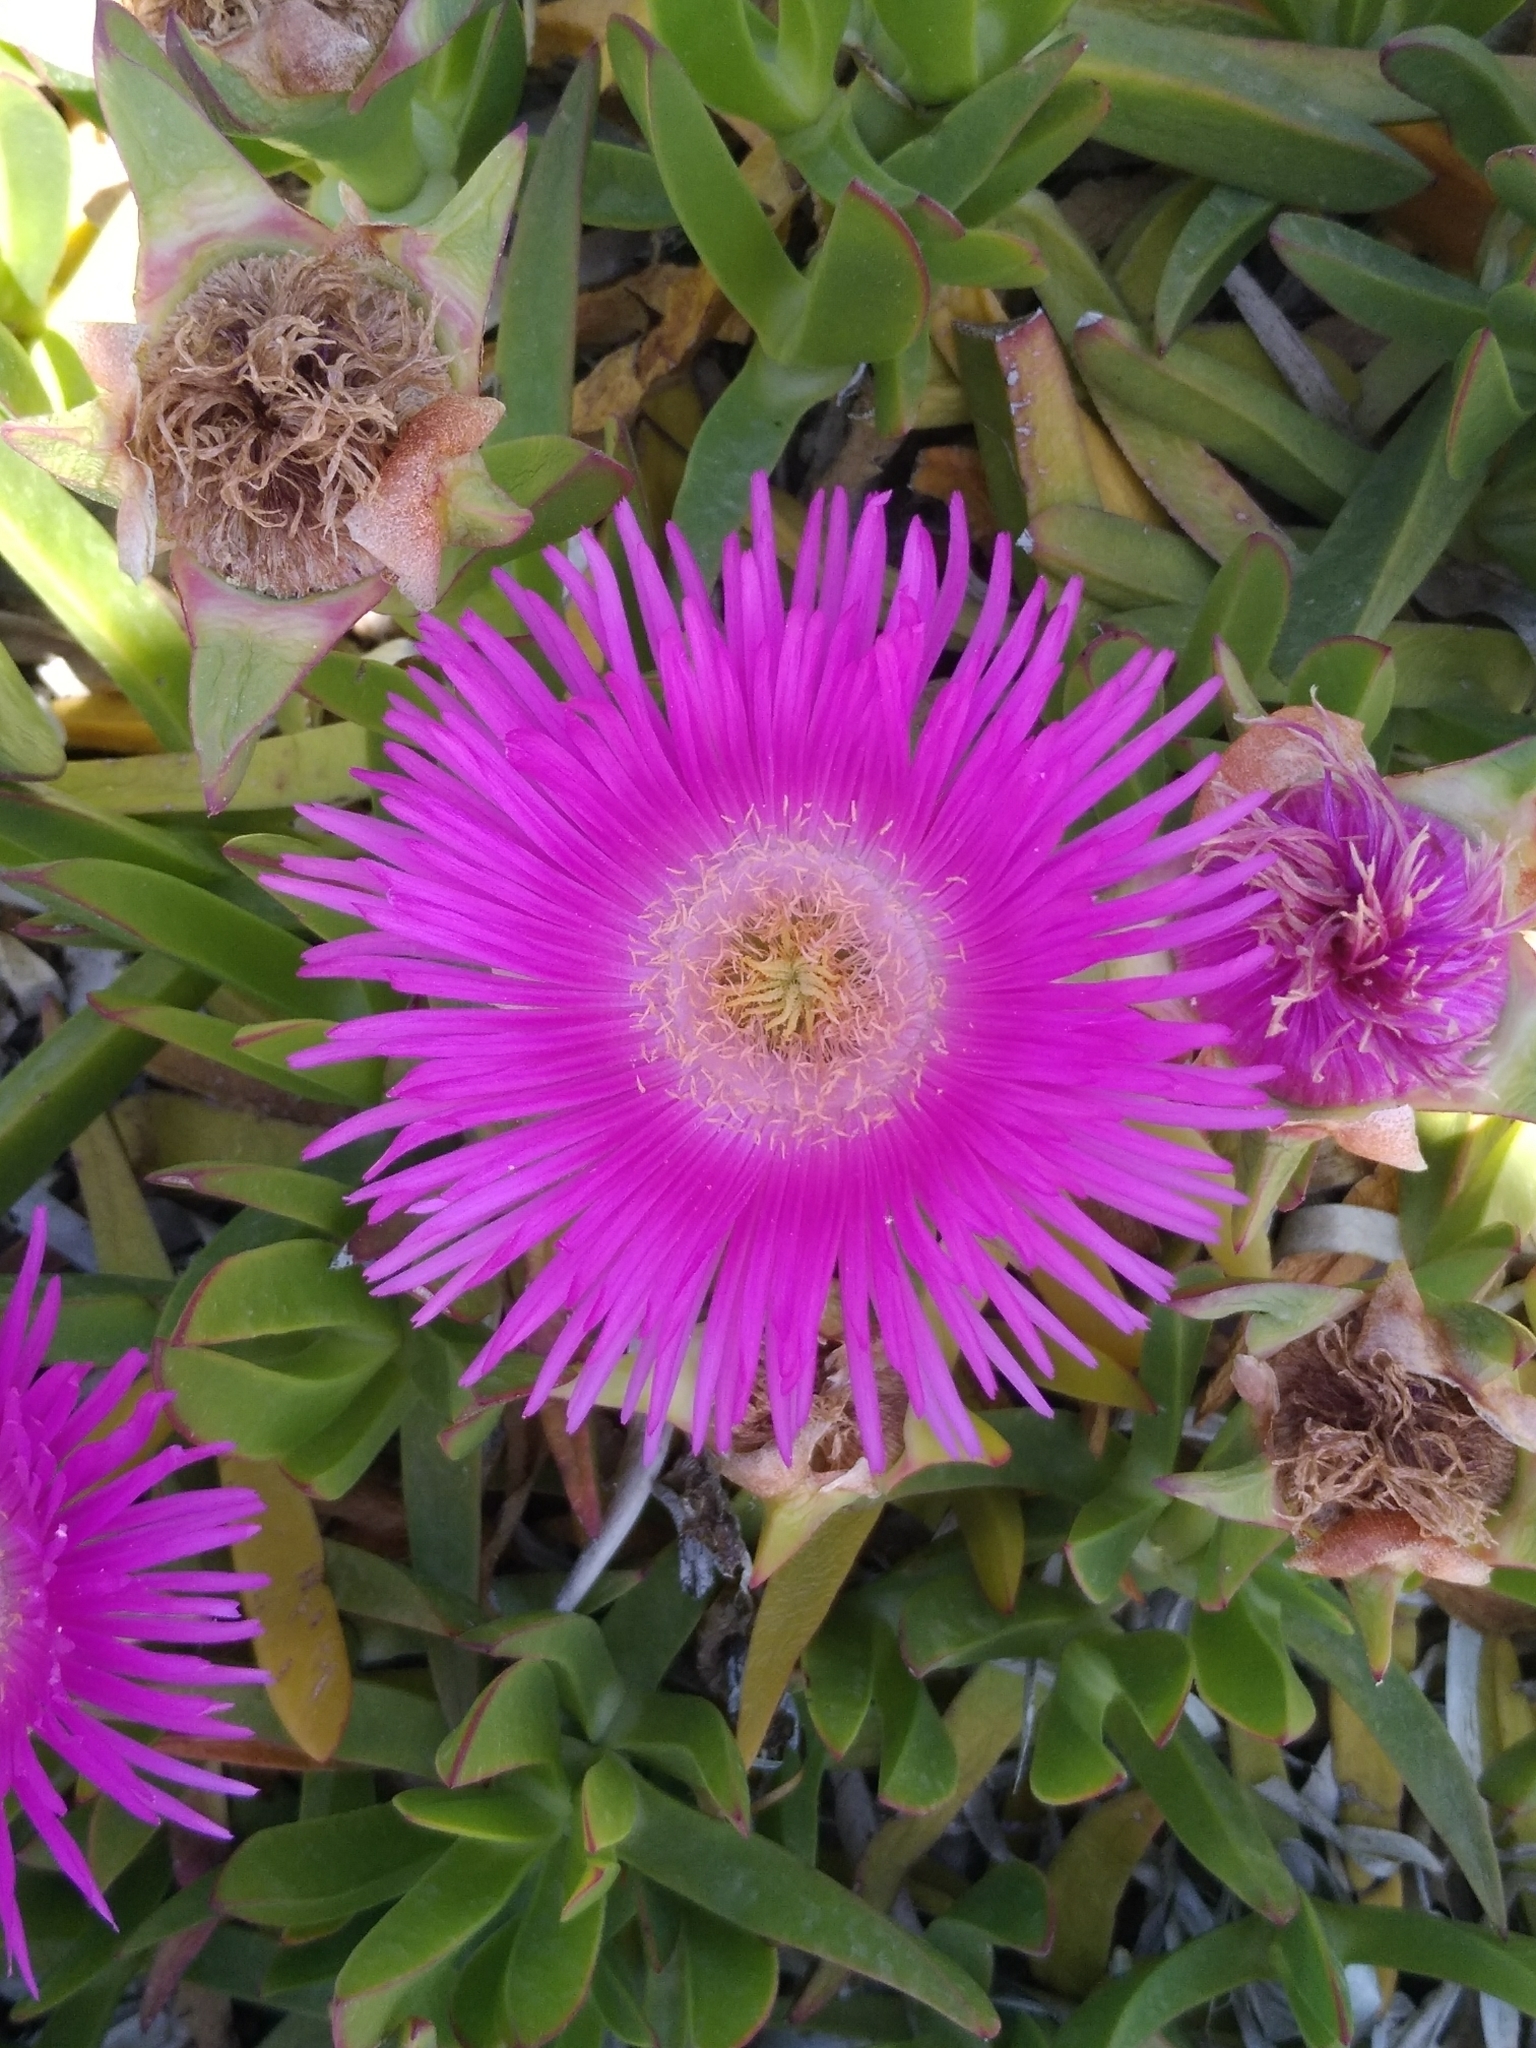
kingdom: Plantae
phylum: Tracheophyta
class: Magnoliopsida
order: Caryophyllales
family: Aizoaceae
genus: Carpobrotus
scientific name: Carpobrotus acinaciformis
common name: Sally-my-handsome
